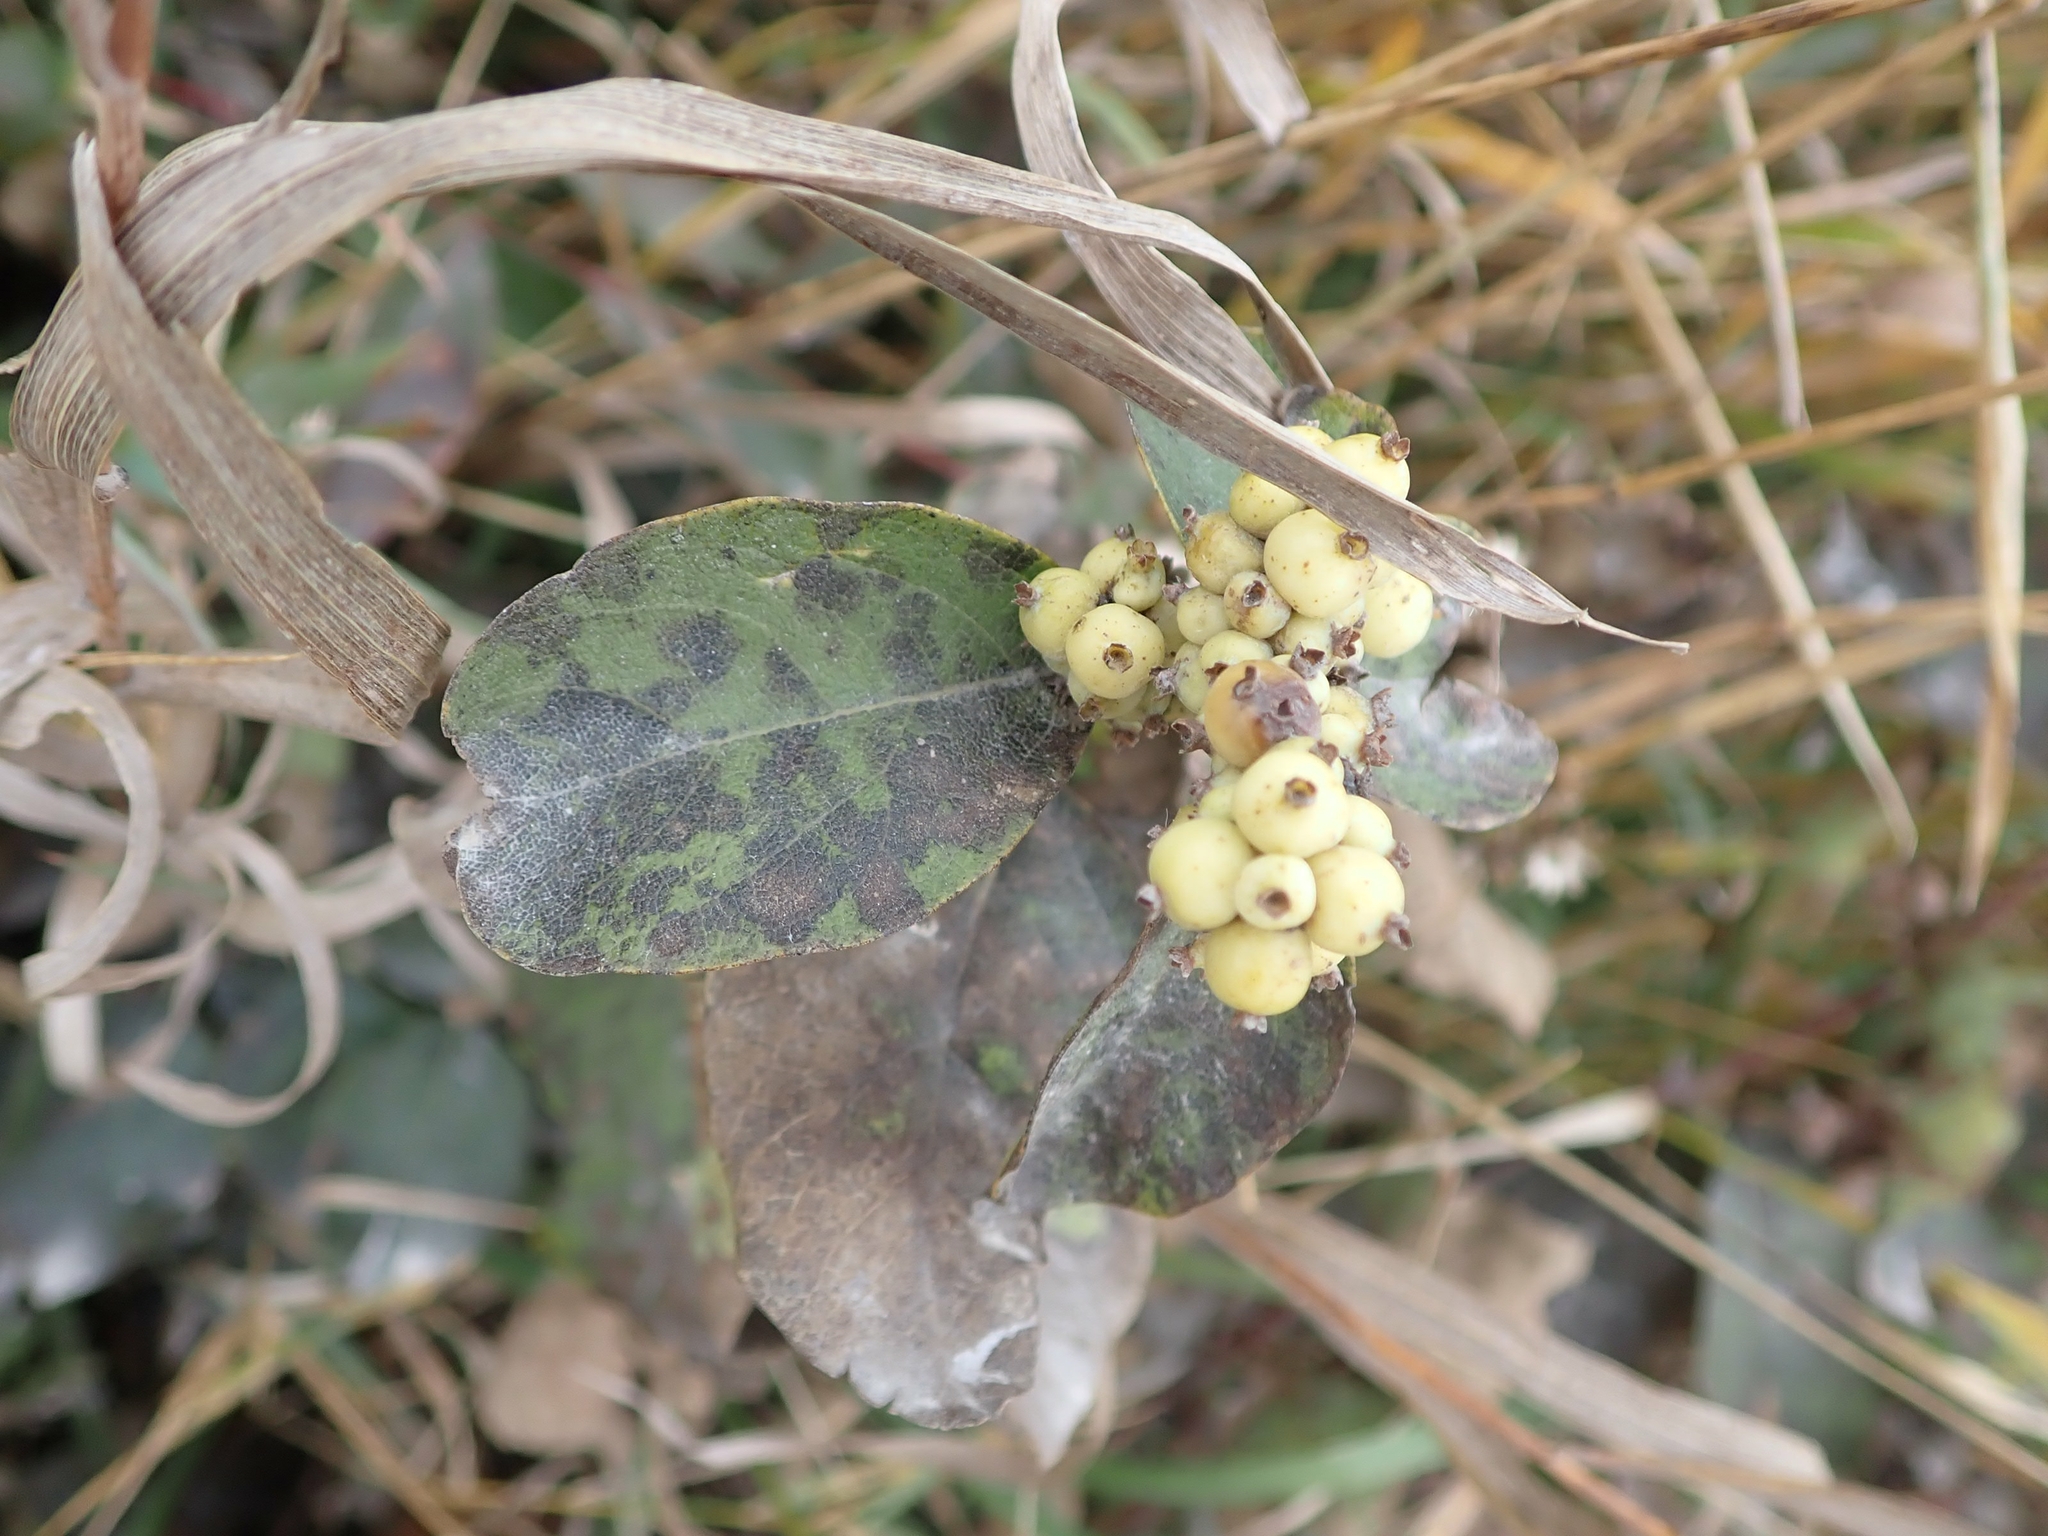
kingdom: Plantae
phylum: Tracheophyta
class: Magnoliopsida
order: Dipsacales
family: Caprifoliaceae
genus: Symphoricarpos
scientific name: Symphoricarpos occidentalis
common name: Wolfberry
